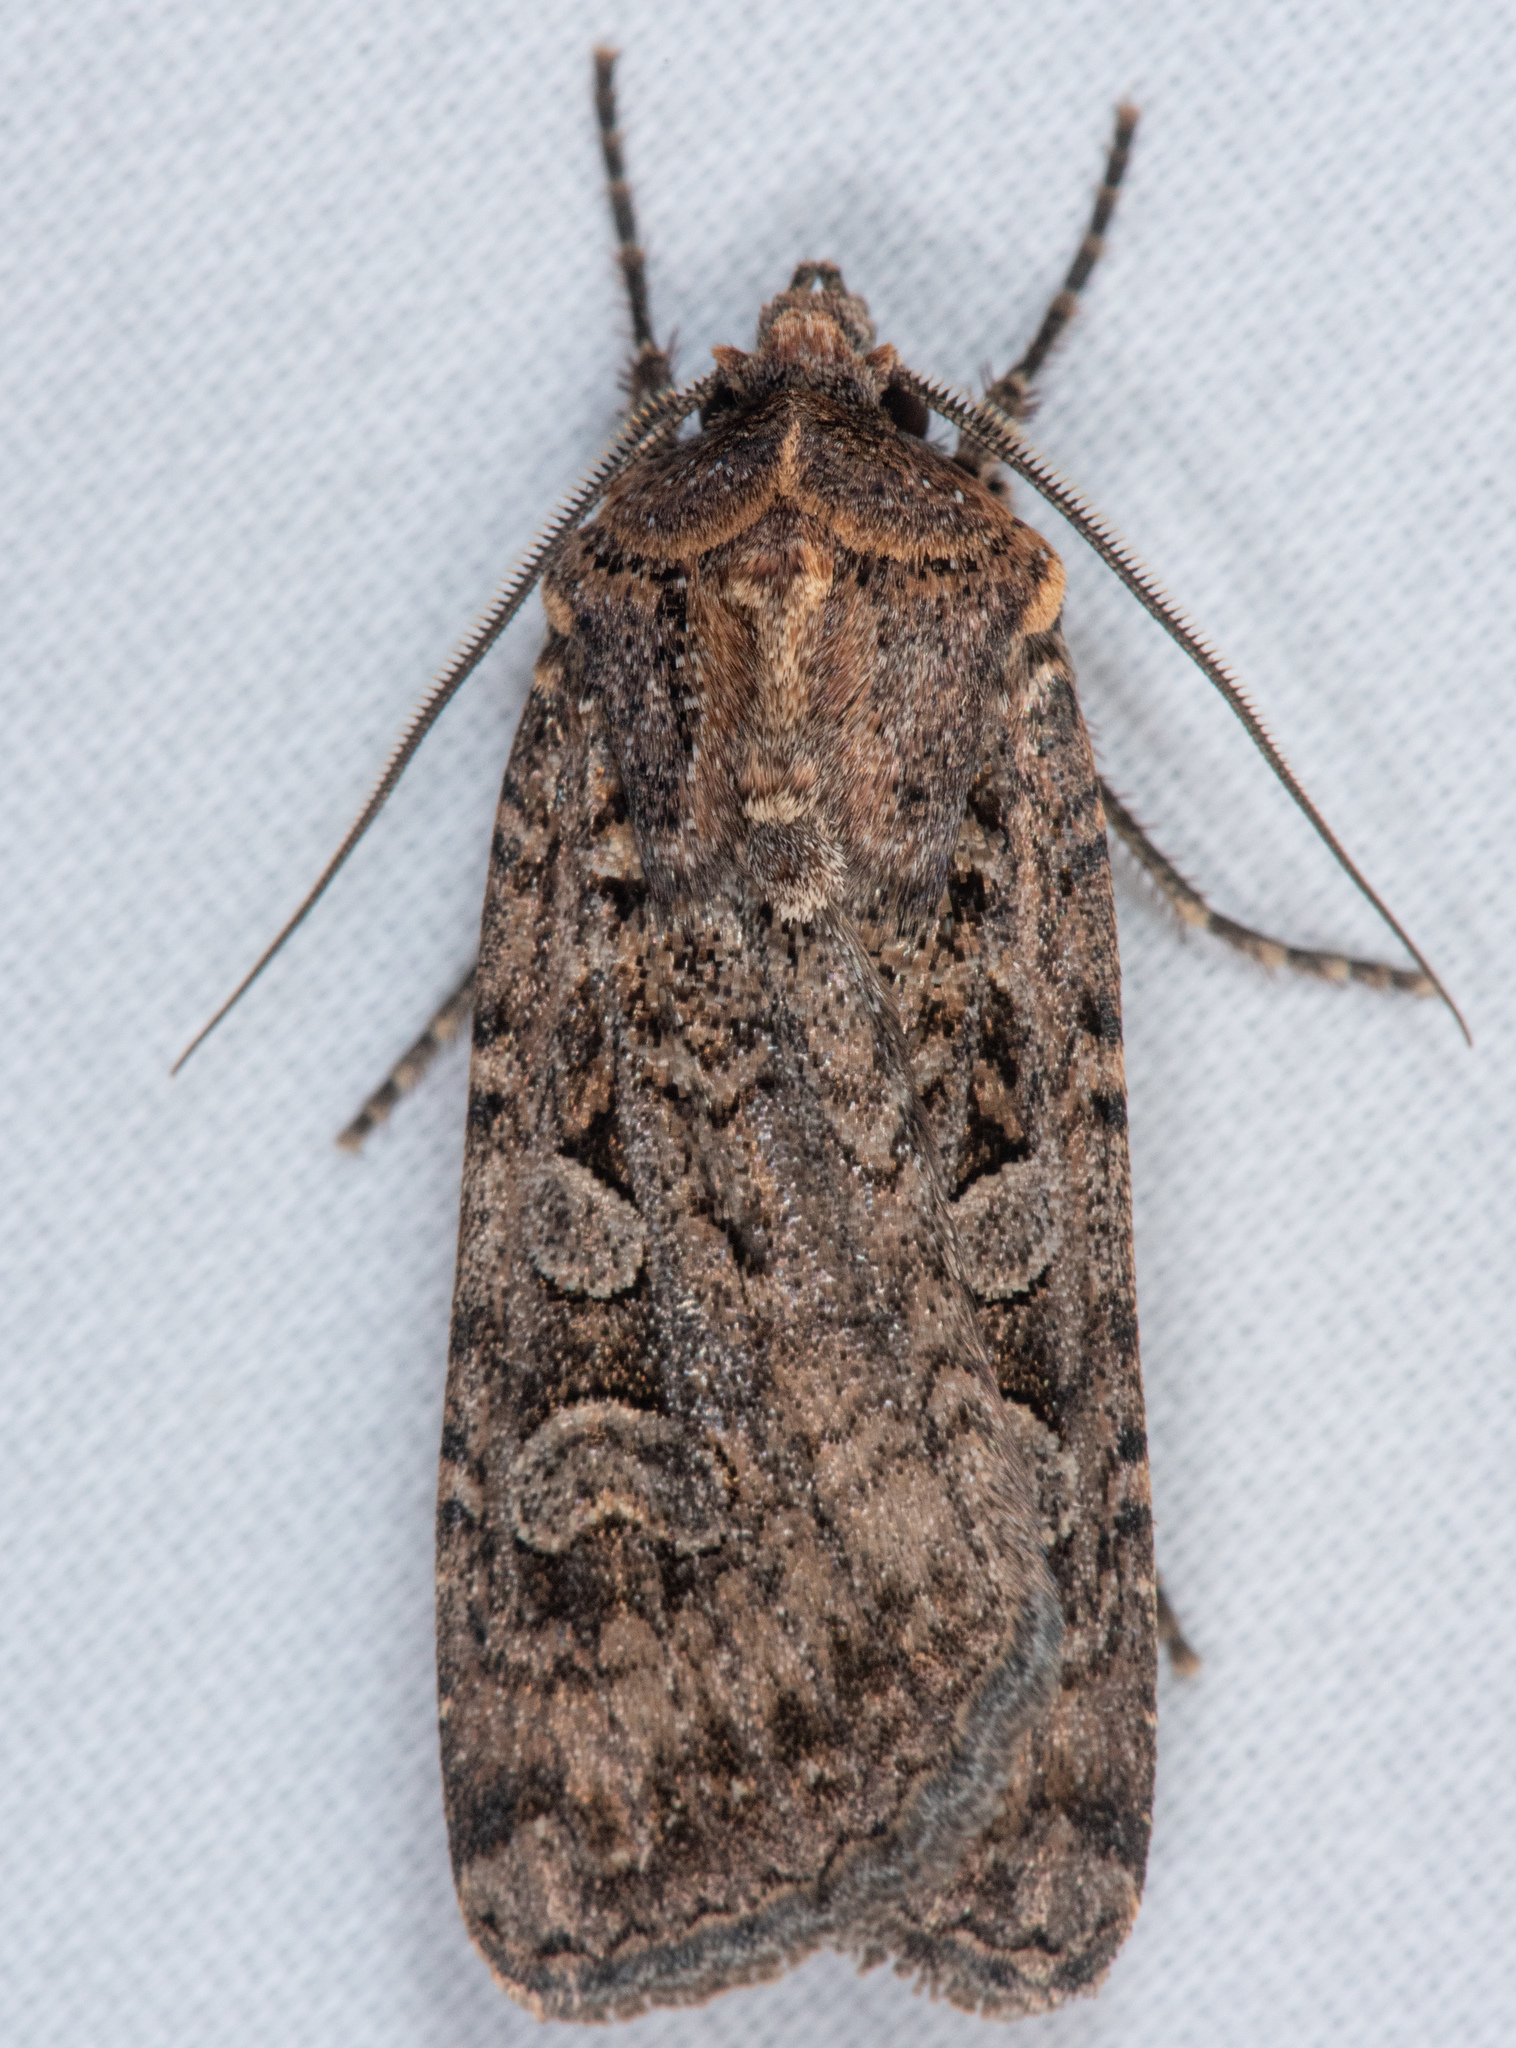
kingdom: Animalia
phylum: Arthropoda
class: Insecta
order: Lepidoptera
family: Noctuidae
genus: Euxoa
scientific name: Euxoa septentrionalis
